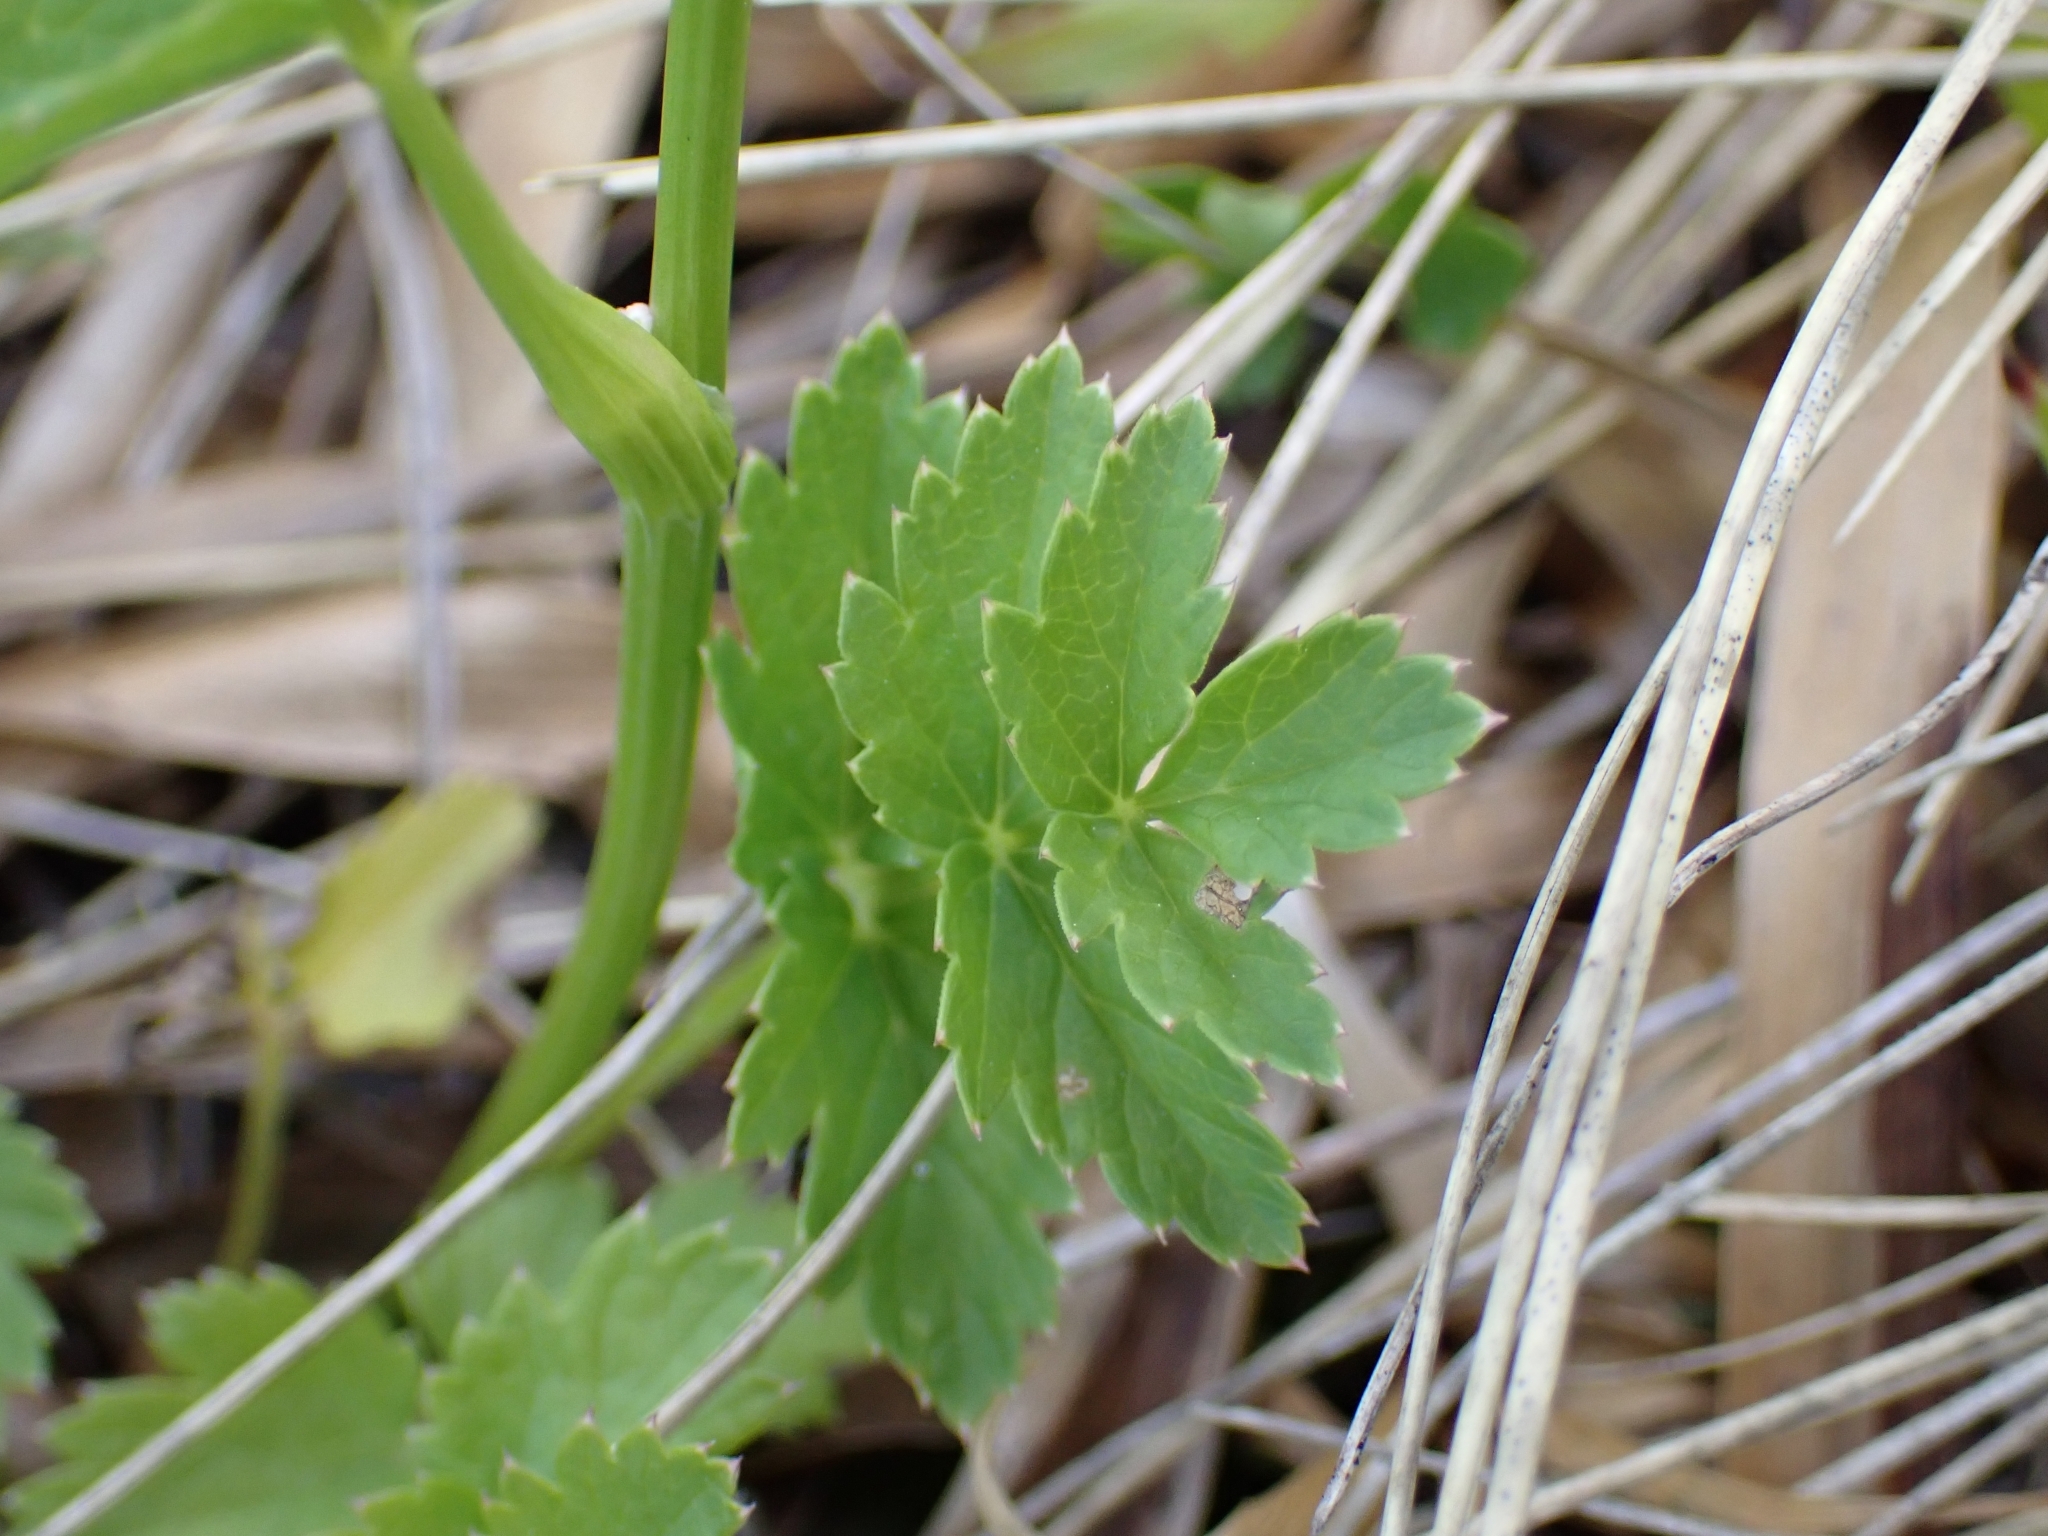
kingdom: Plantae
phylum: Tracheophyta
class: Magnoliopsida
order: Apiales
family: Apiaceae
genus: Pimpinella
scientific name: Pimpinella major
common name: Greater burnet-saxifrage
